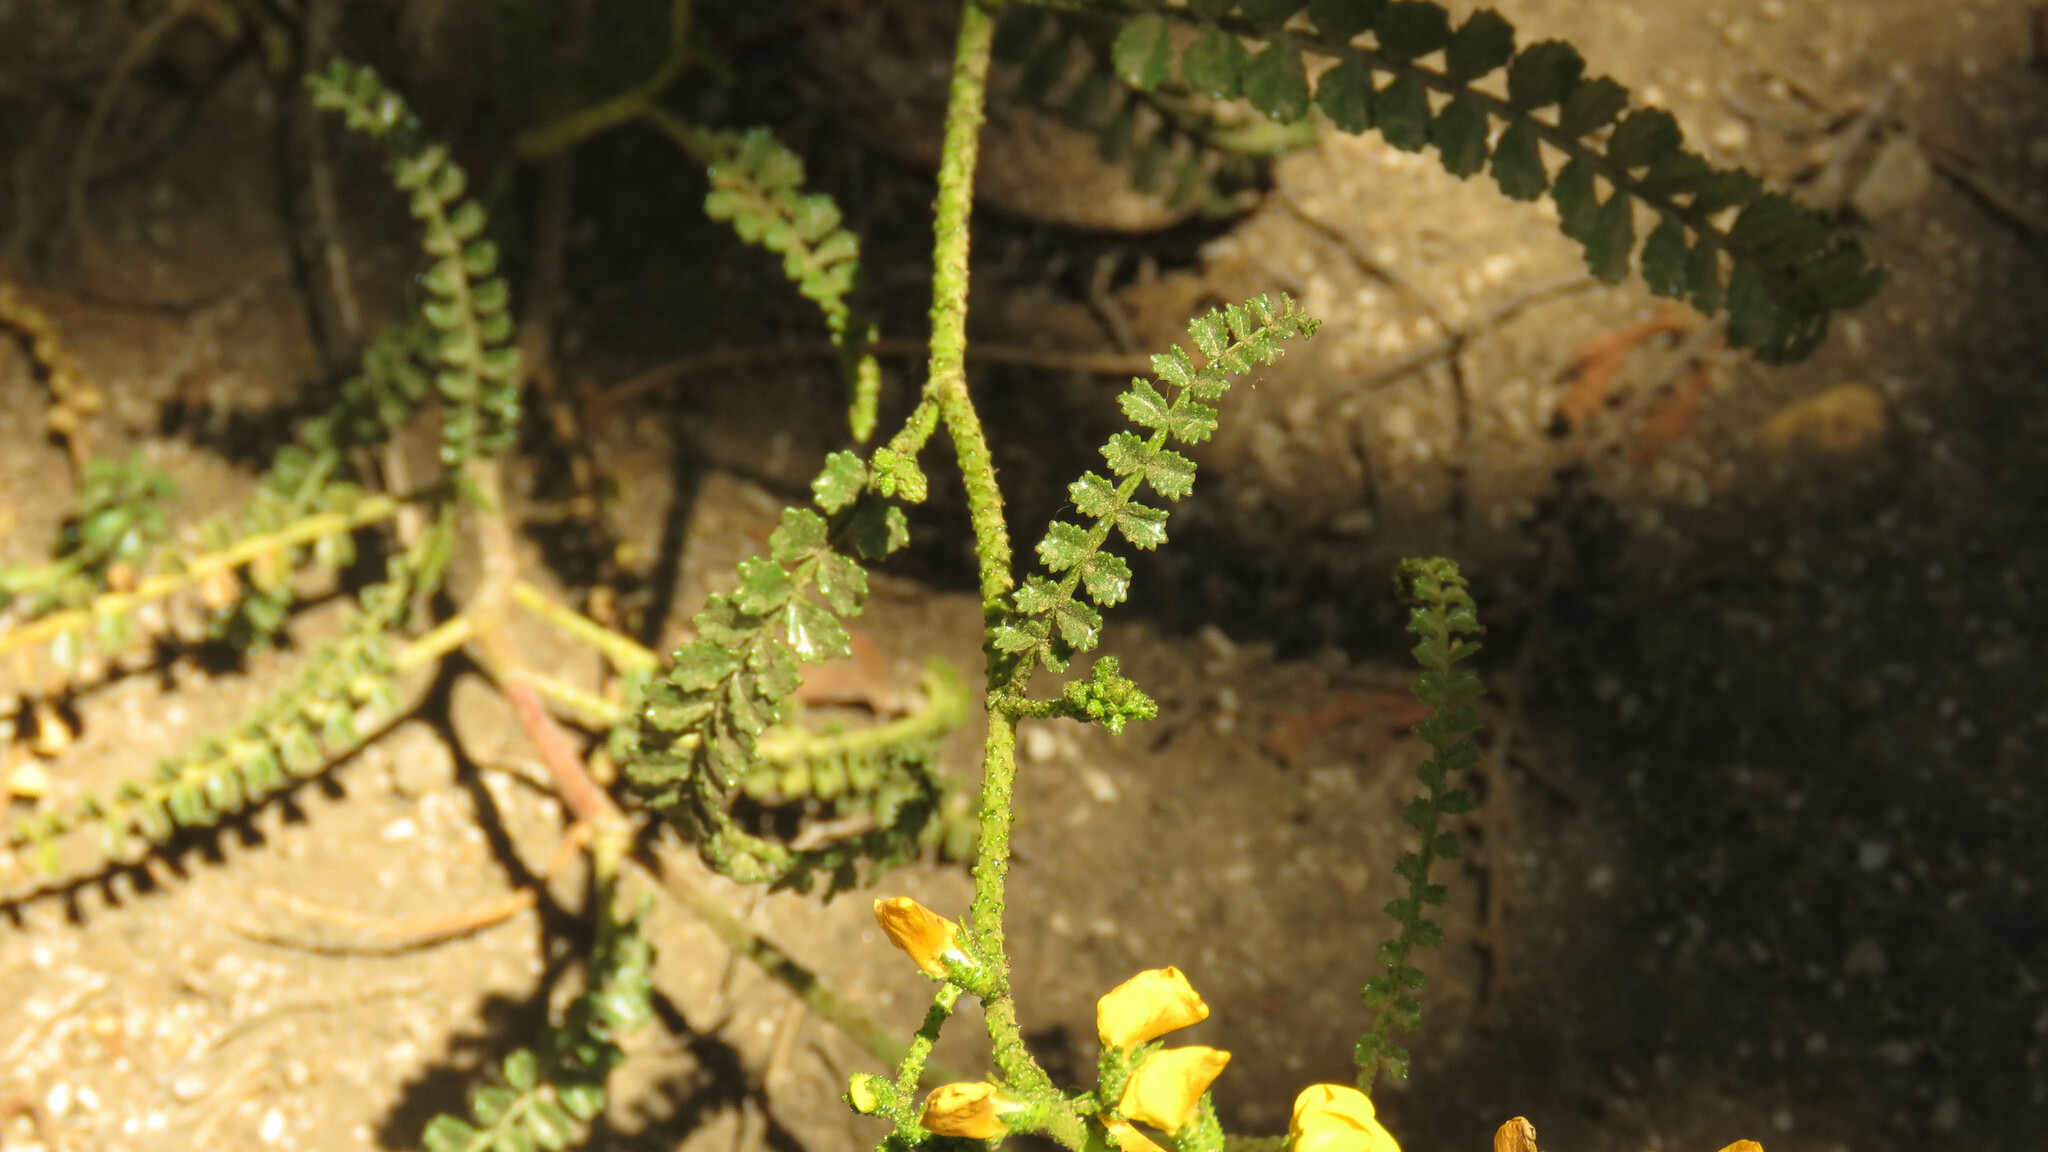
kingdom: Plantae
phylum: Tracheophyta
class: Magnoliopsida
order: Fabales
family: Fabaceae
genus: Adesmia
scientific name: Adesmia boronioides
